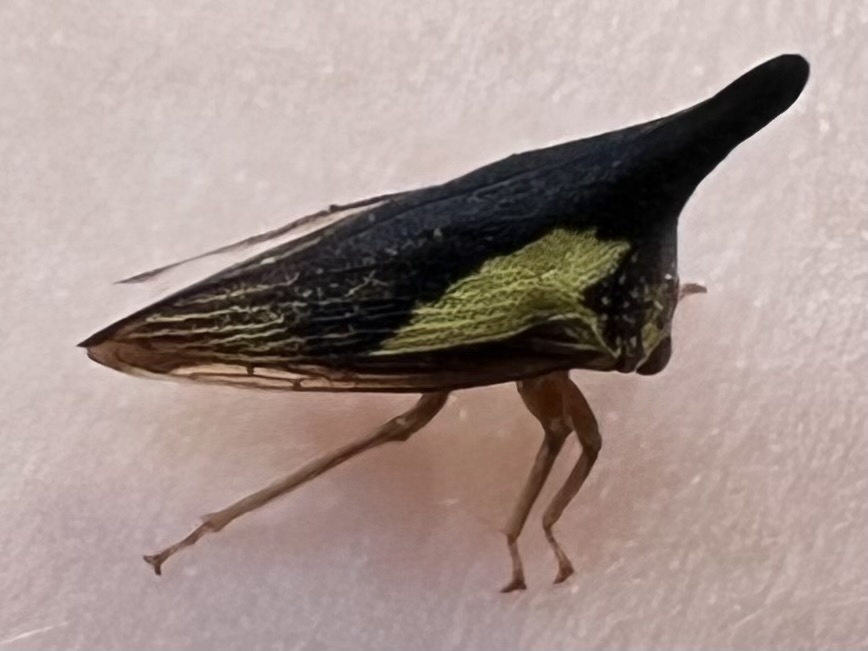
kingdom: Animalia
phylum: Arthropoda
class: Insecta
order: Hemiptera
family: Membracidae
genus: Thelia
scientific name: Thelia bimaculata
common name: Locust treehopper
